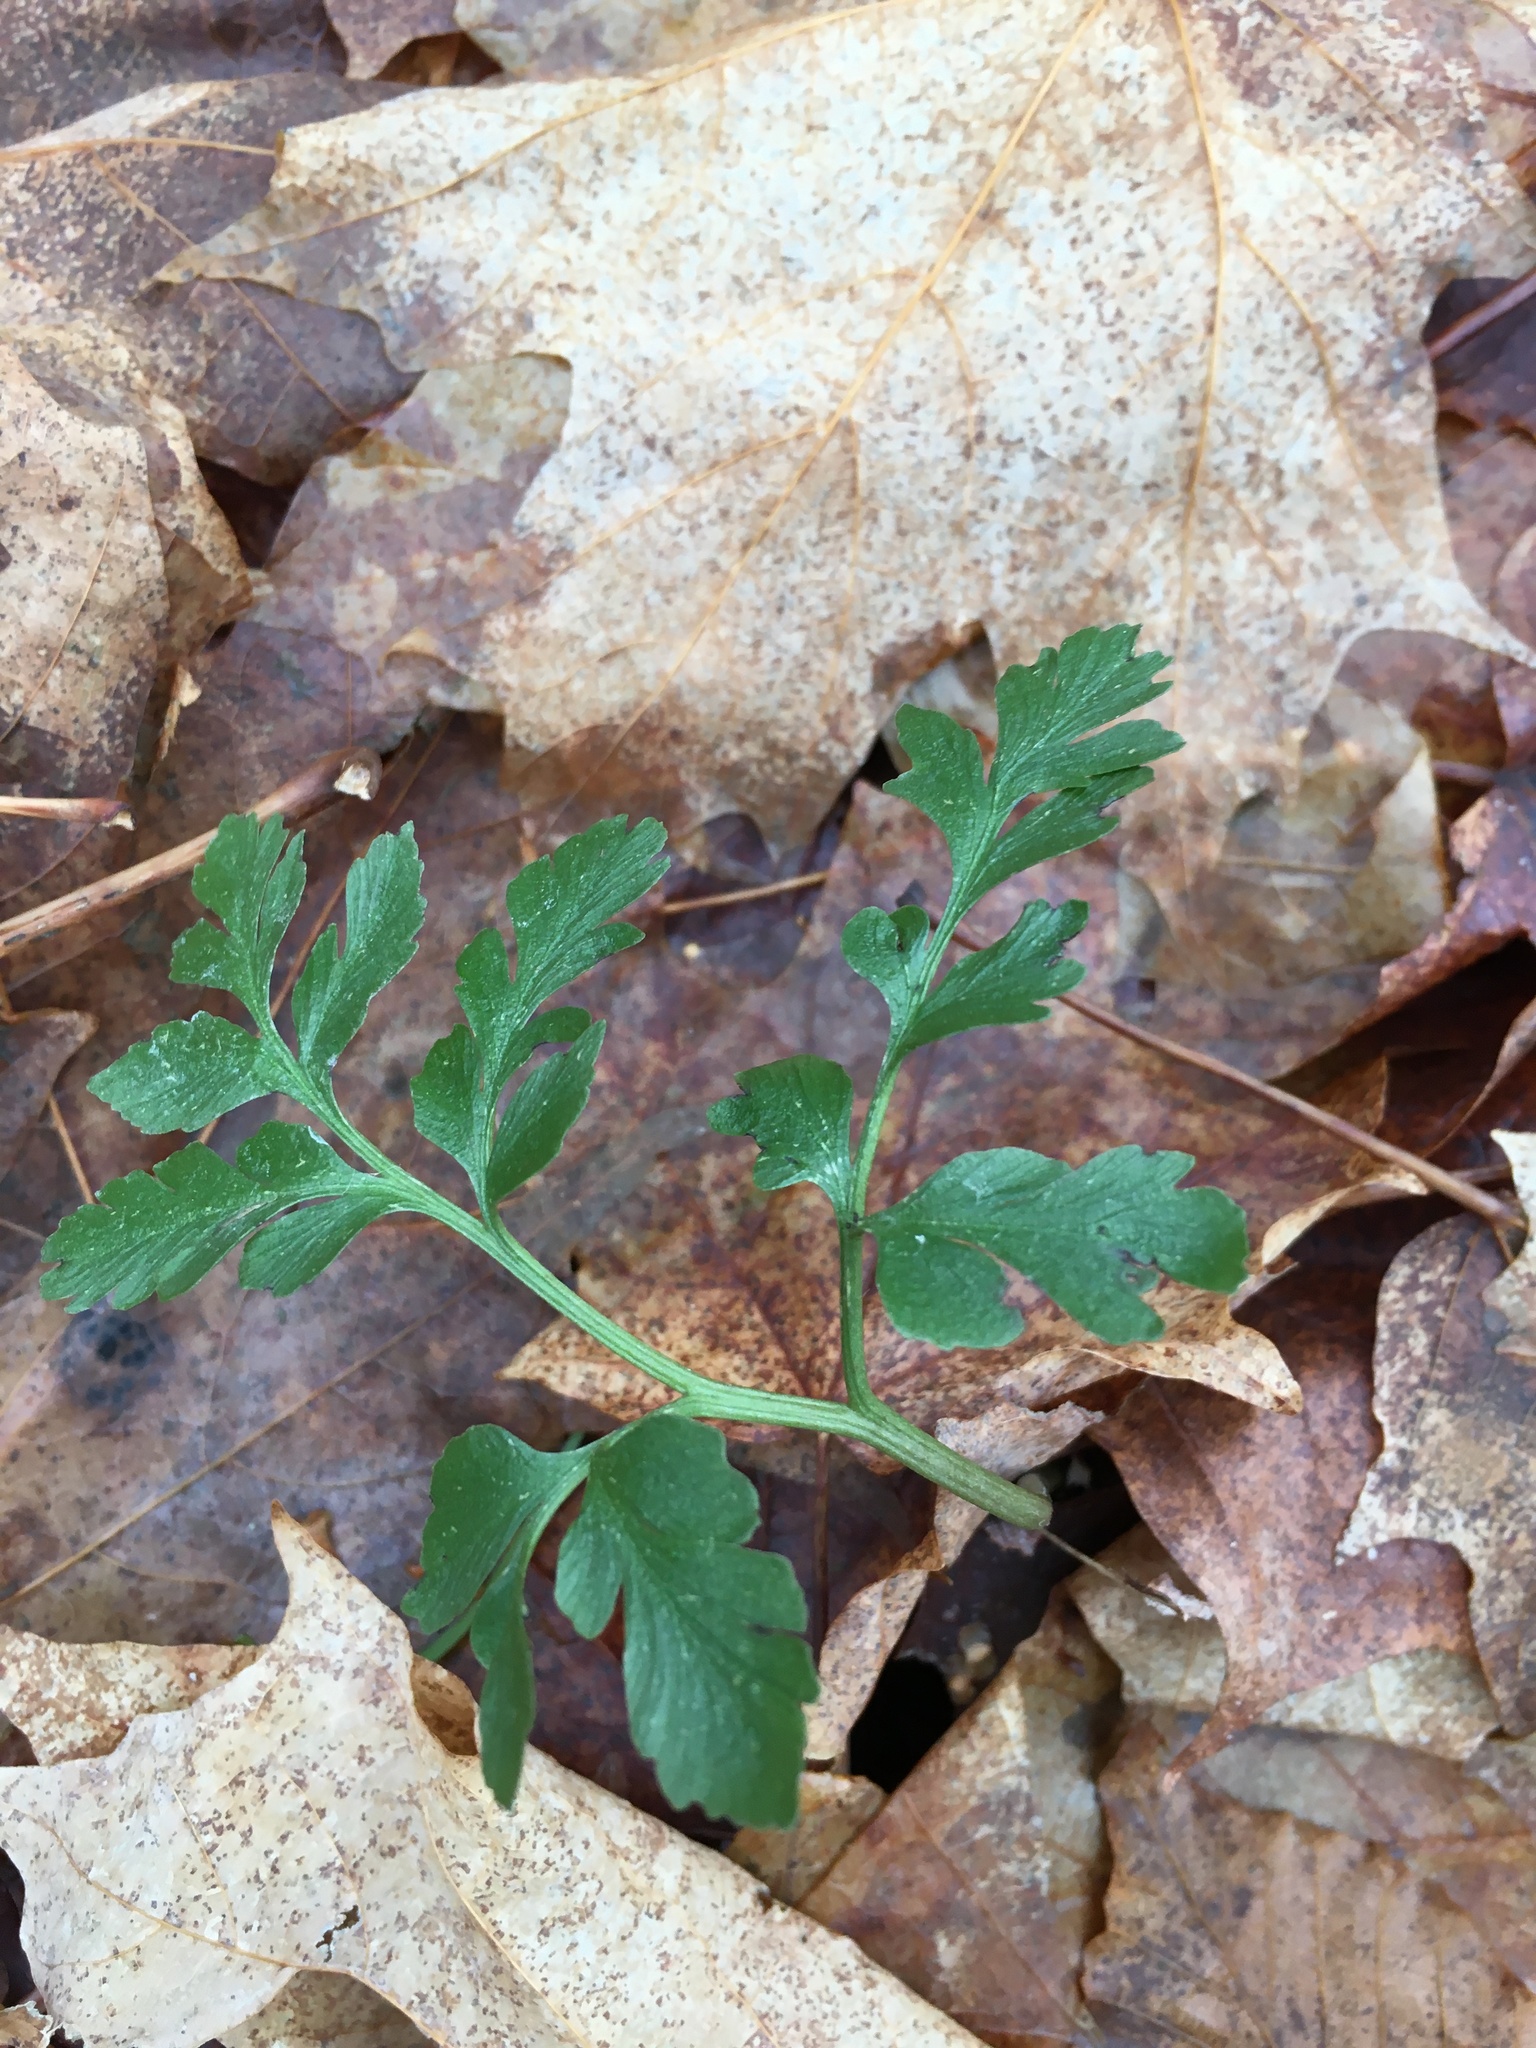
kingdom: Plantae
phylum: Tracheophyta
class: Polypodiopsida
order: Ophioglossales
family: Ophioglossaceae
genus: Sceptridium
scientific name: Sceptridium multifidum
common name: Leathery grape fern
